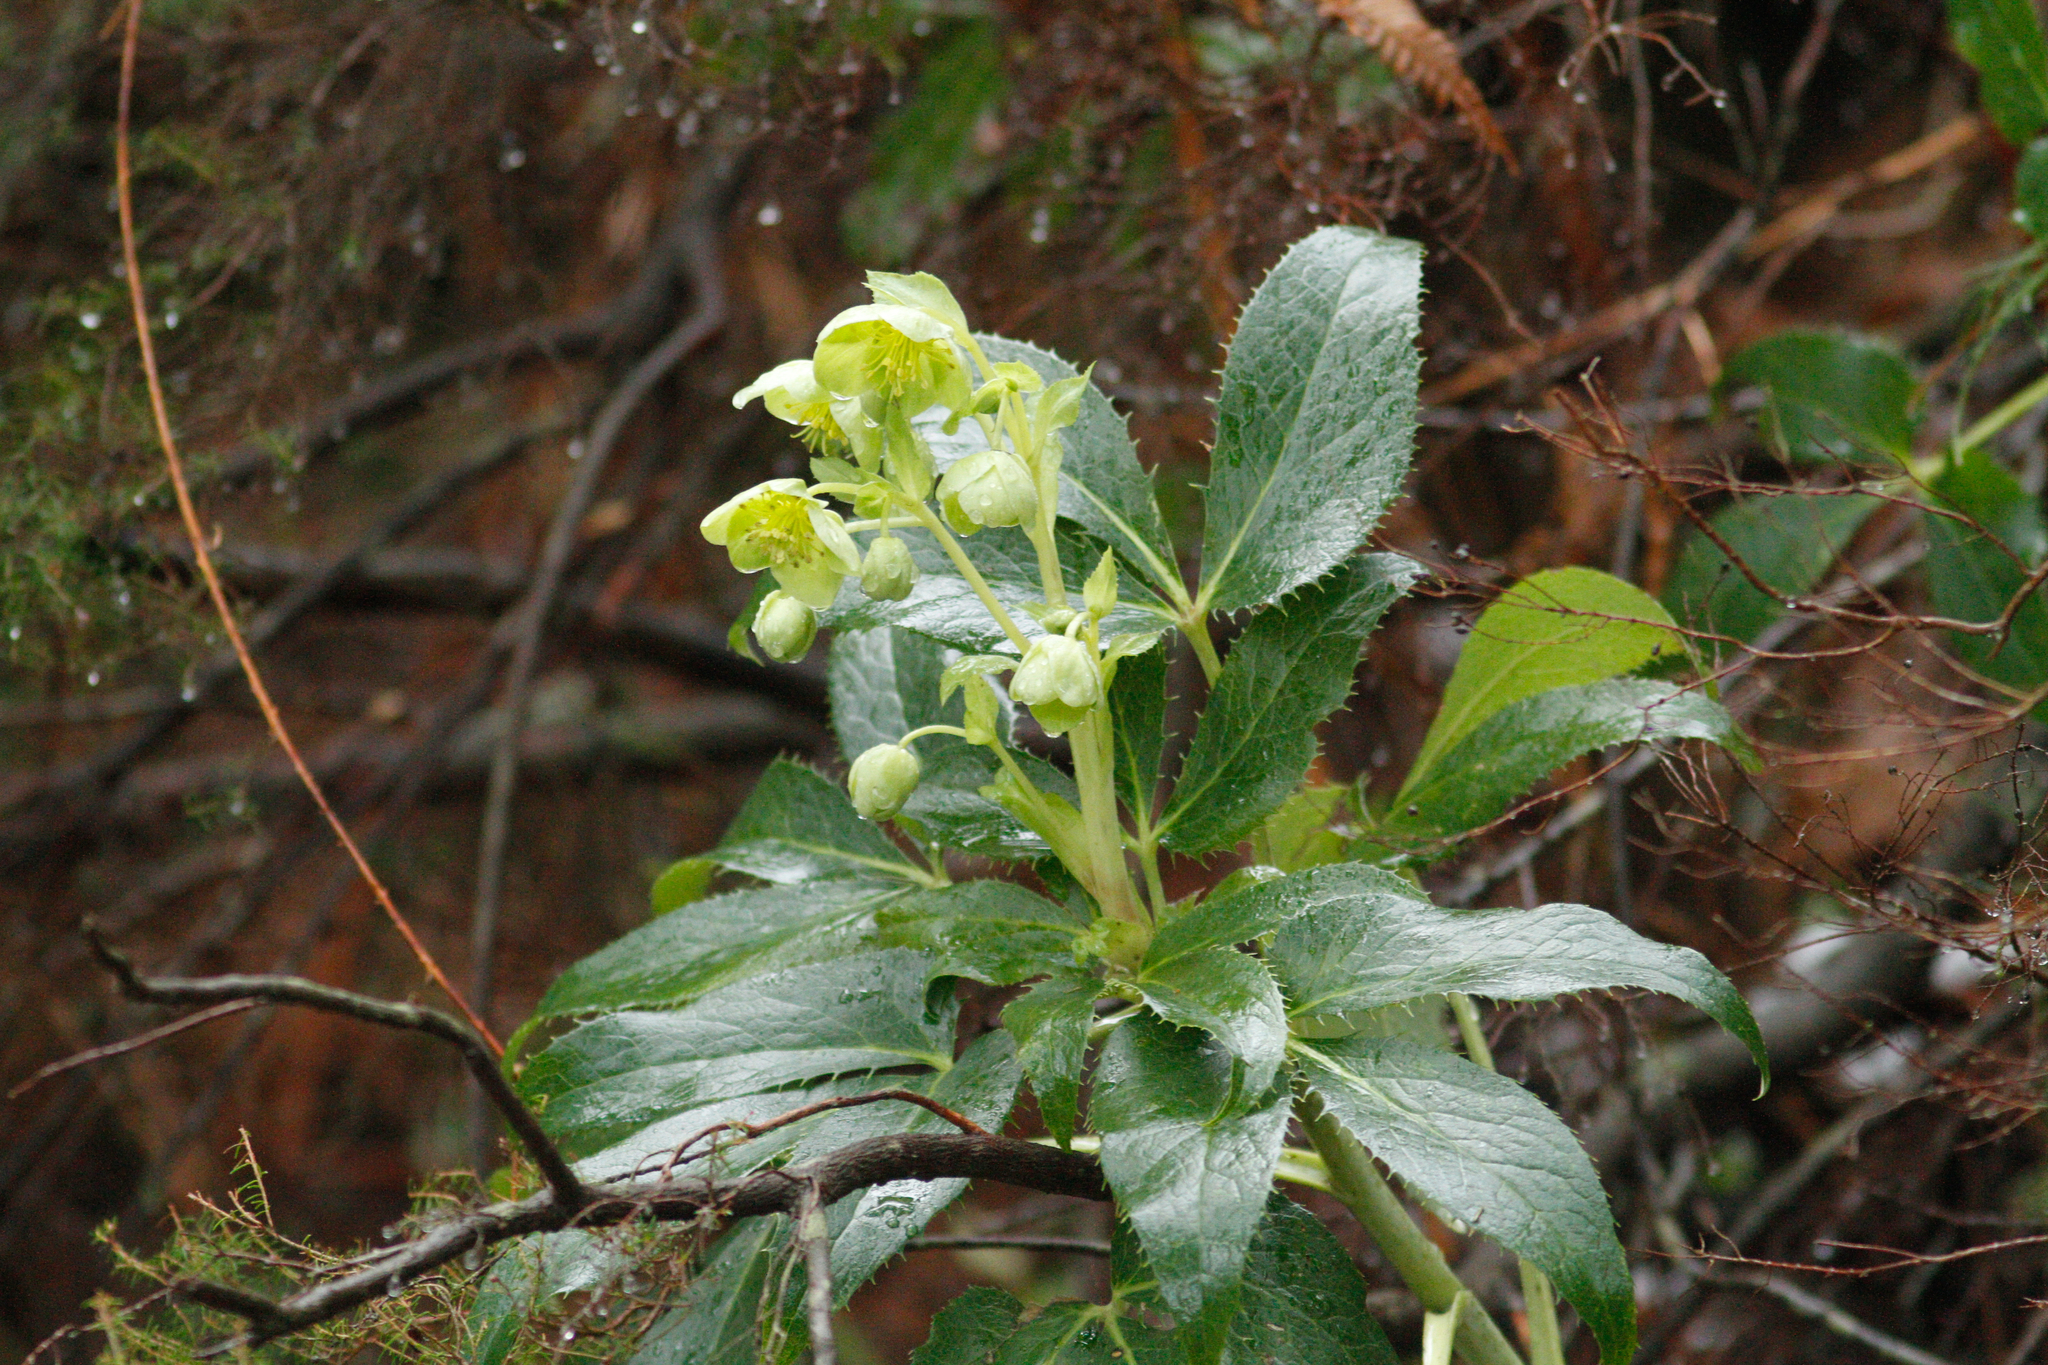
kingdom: Plantae
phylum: Tracheophyta
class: Magnoliopsida
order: Ranunculales
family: Ranunculaceae
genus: Helleborus
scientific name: Helleborus argutifolius
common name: Corsican hellebore
